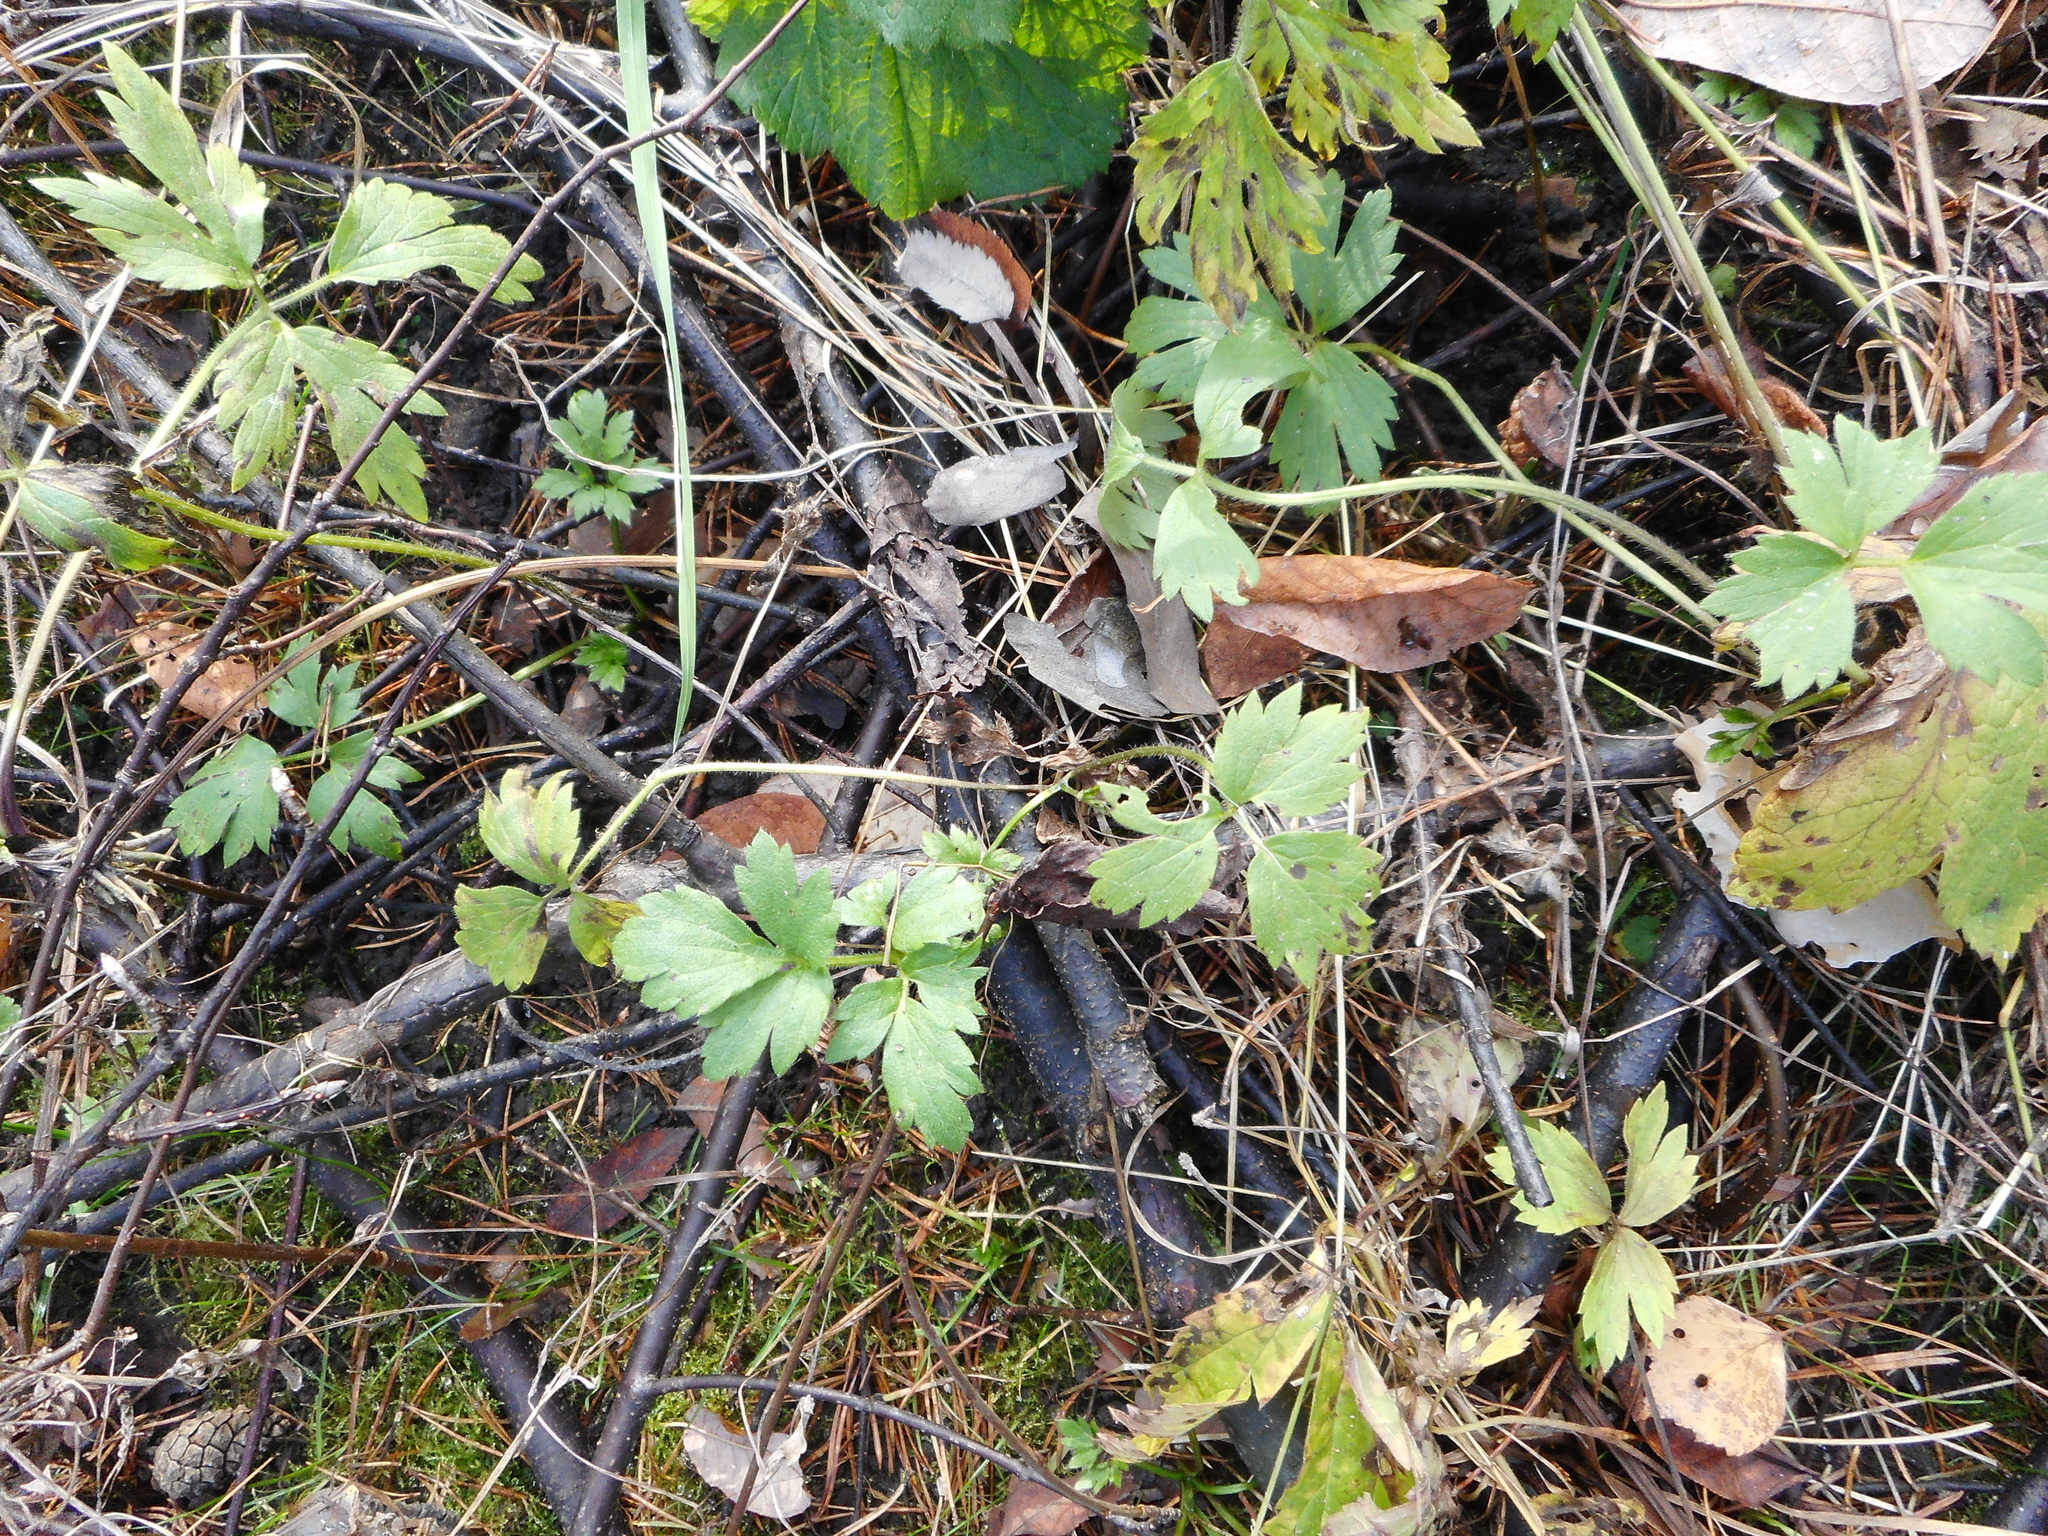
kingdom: Plantae
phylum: Tracheophyta
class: Magnoliopsida
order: Ranunculales
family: Ranunculaceae
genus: Ranunculus
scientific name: Ranunculus repens
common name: Creeping buttercup
